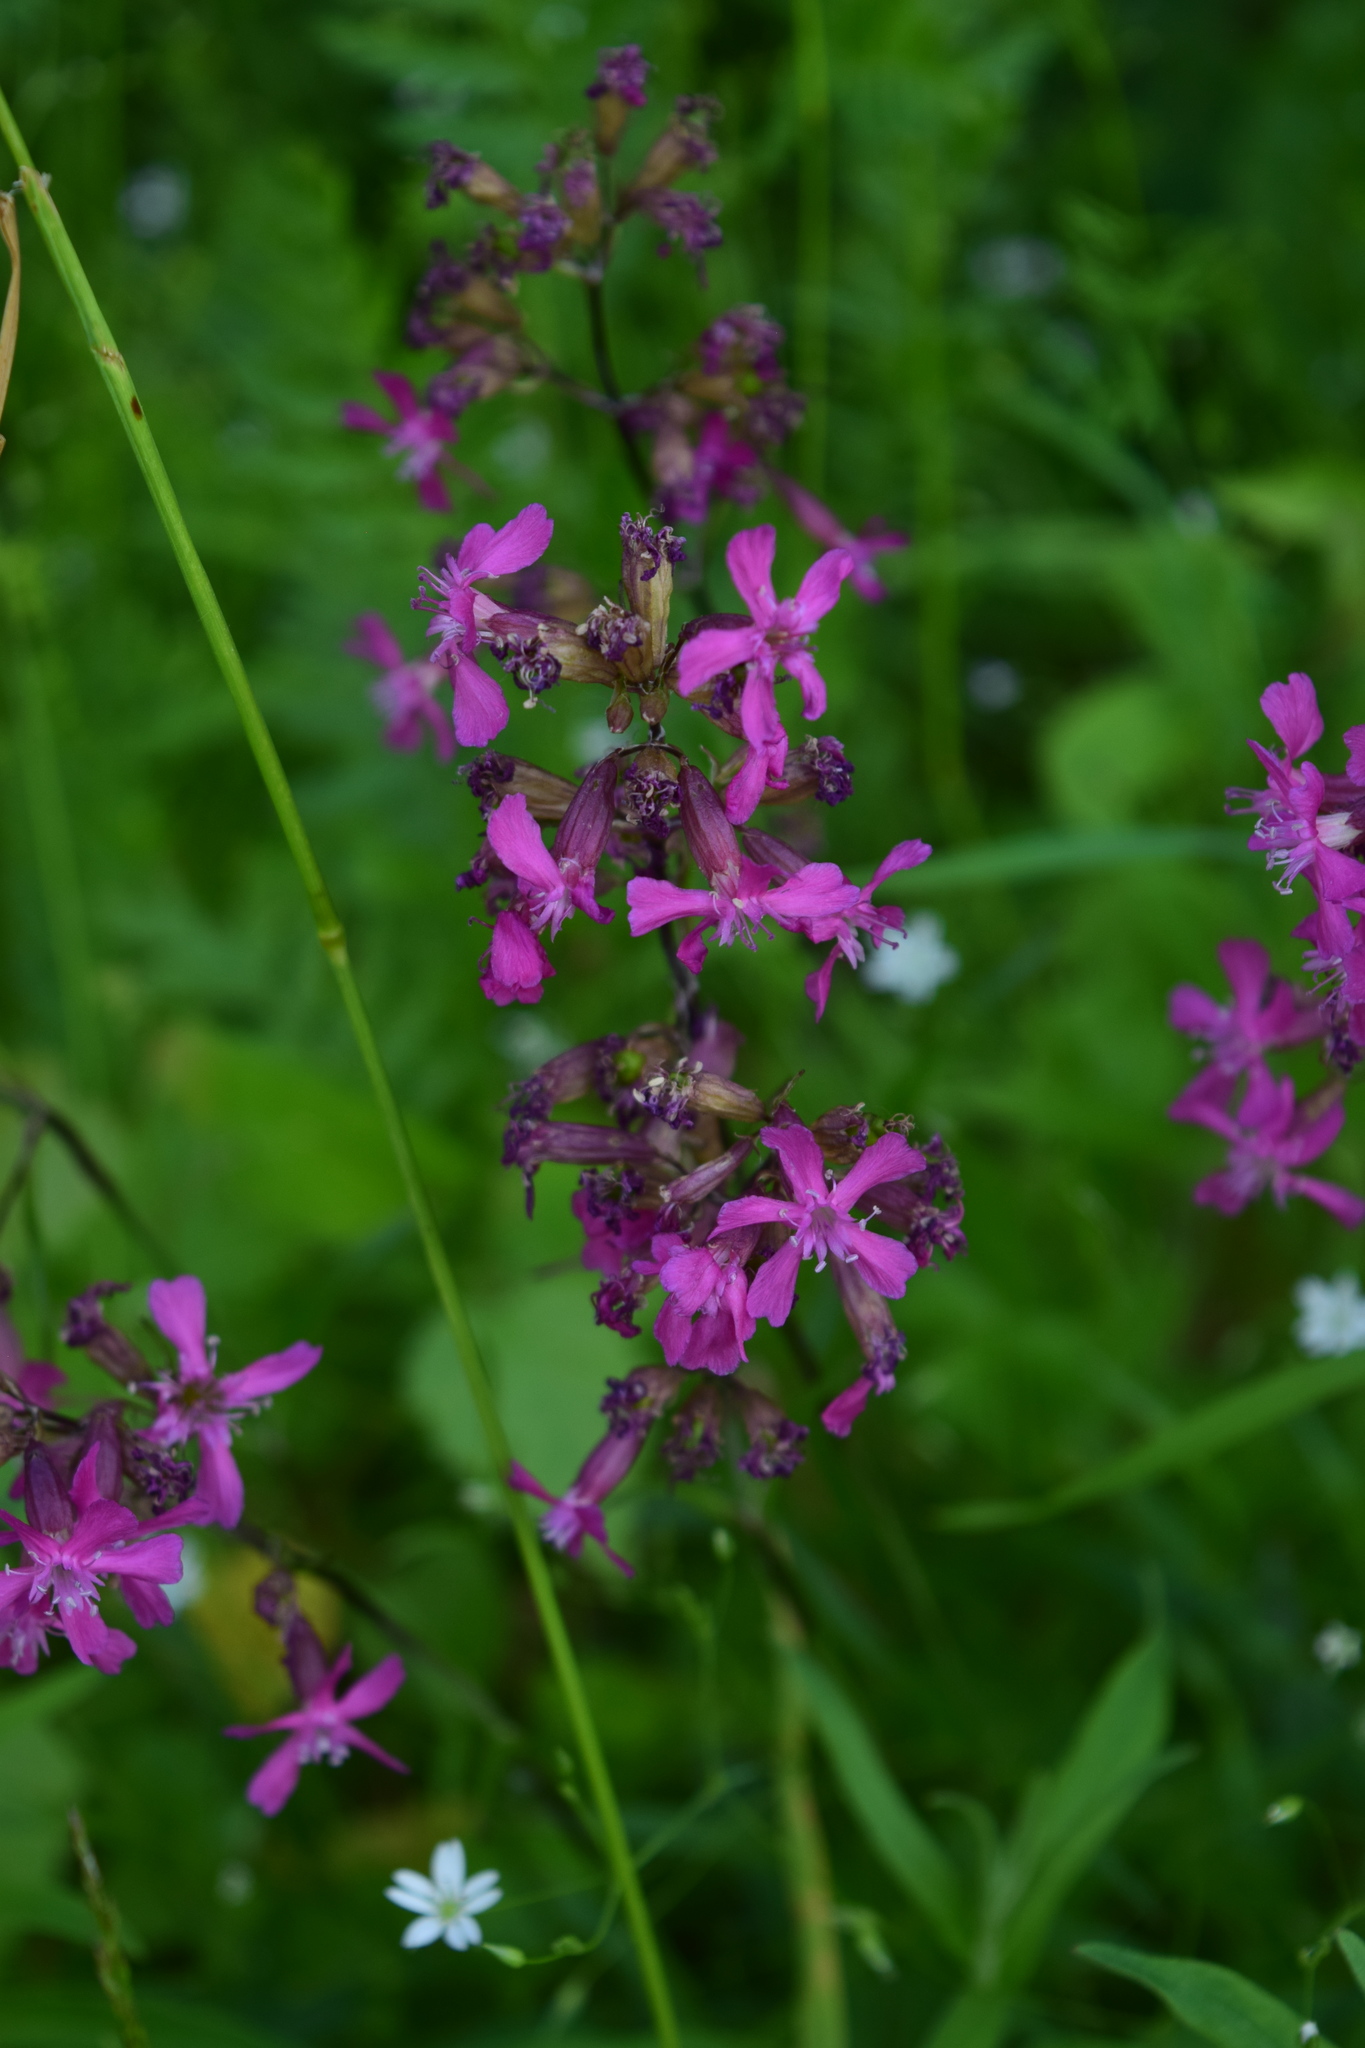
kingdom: Plantae
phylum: Tracheophyta
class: Magnoliopsida
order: Caryophyllales
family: Caryophyllaceae
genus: Viscaria
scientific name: Viscaria vulgaris
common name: Clammy campion
